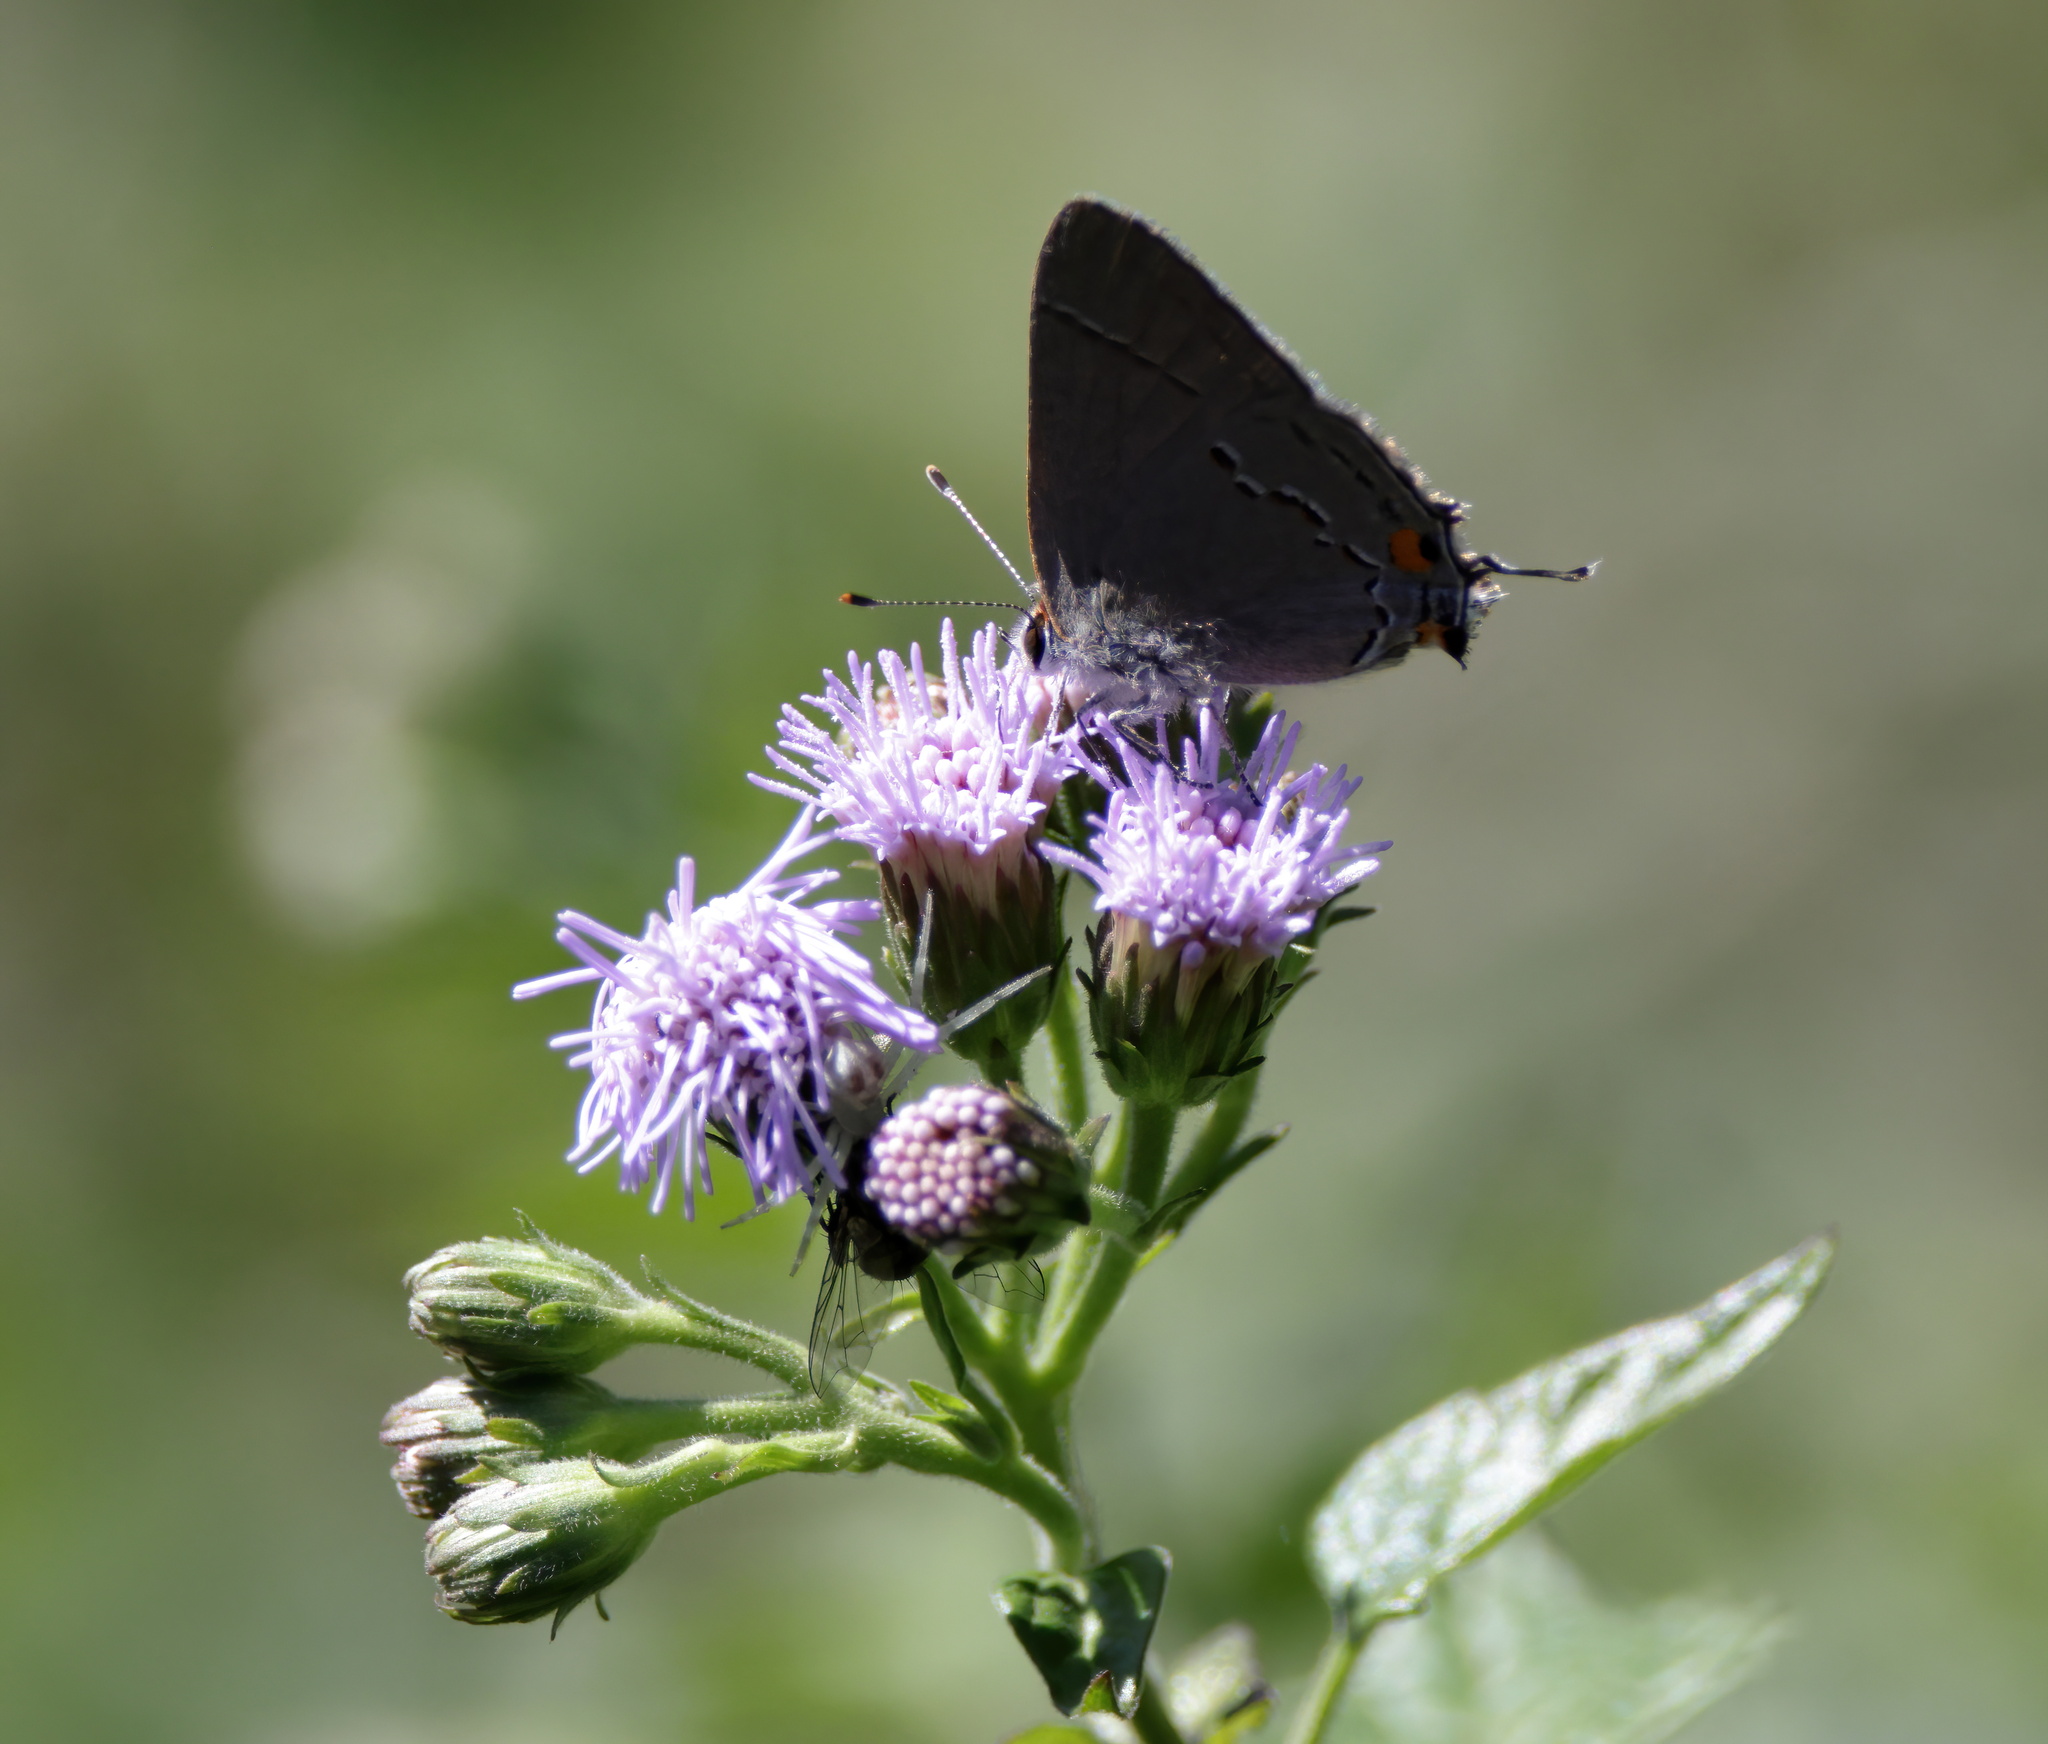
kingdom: Animalia
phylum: Arthropoda
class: Insecta
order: Lepidoptera
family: Lycaenidae
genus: Strymon
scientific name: Strymon melinus
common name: Gray hairstreak
